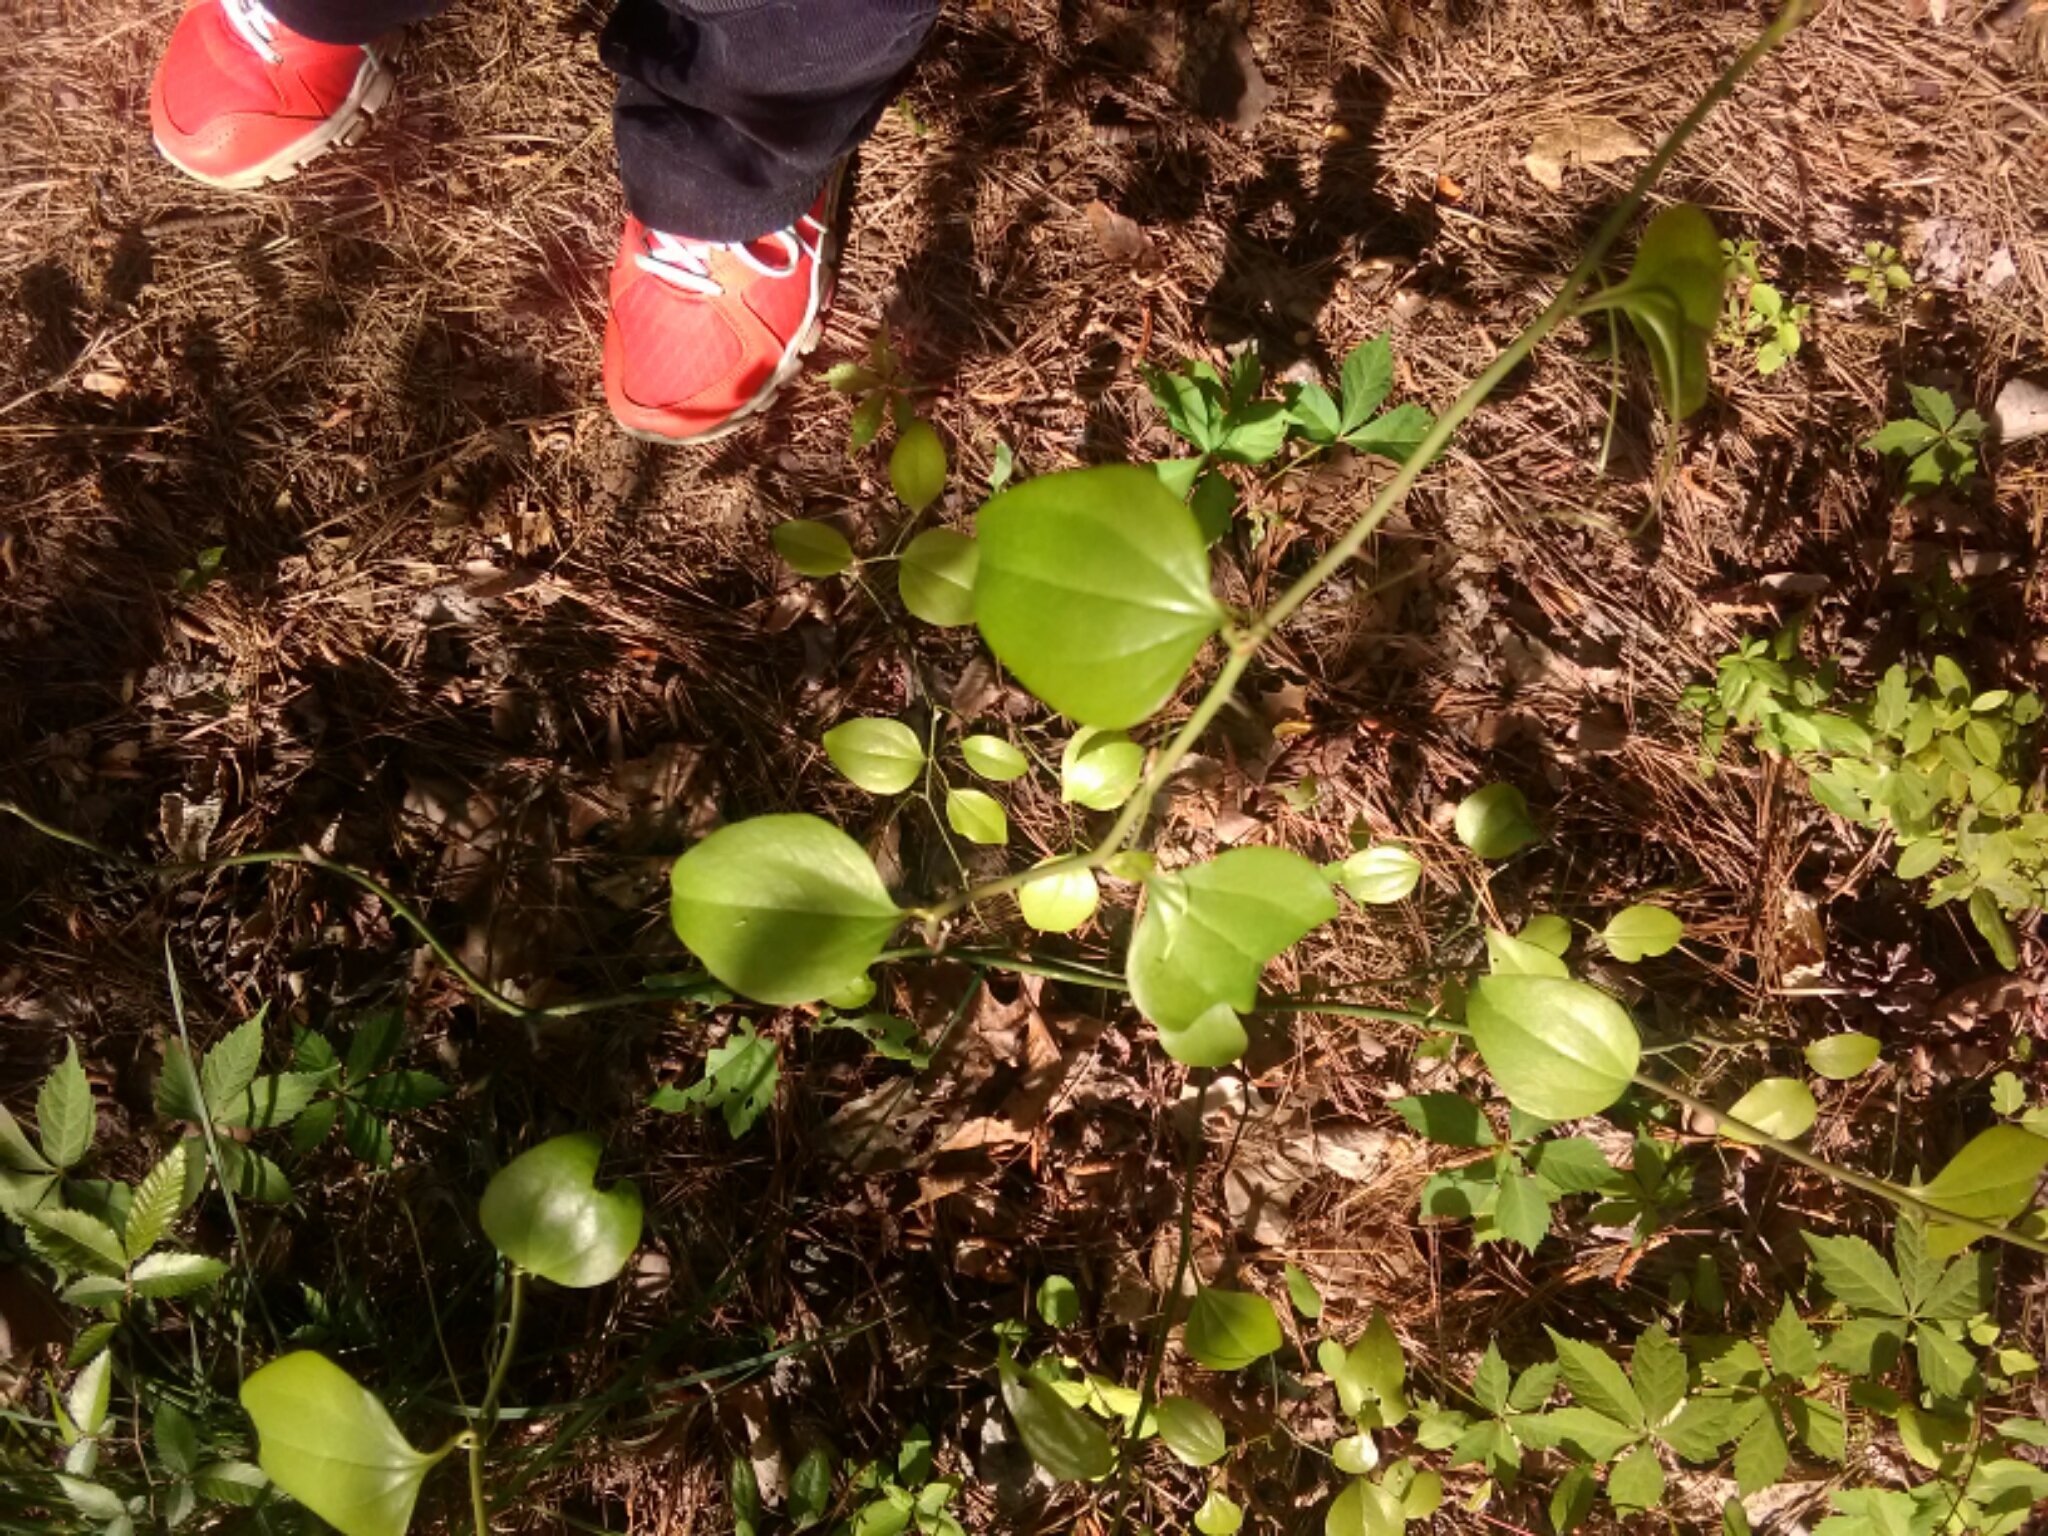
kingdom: Plantae
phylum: Tracheophyta
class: Liliopsida
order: Liliales
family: Smilacaceae
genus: Smilax
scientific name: Smilax rotundifolia
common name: Bullbriar
